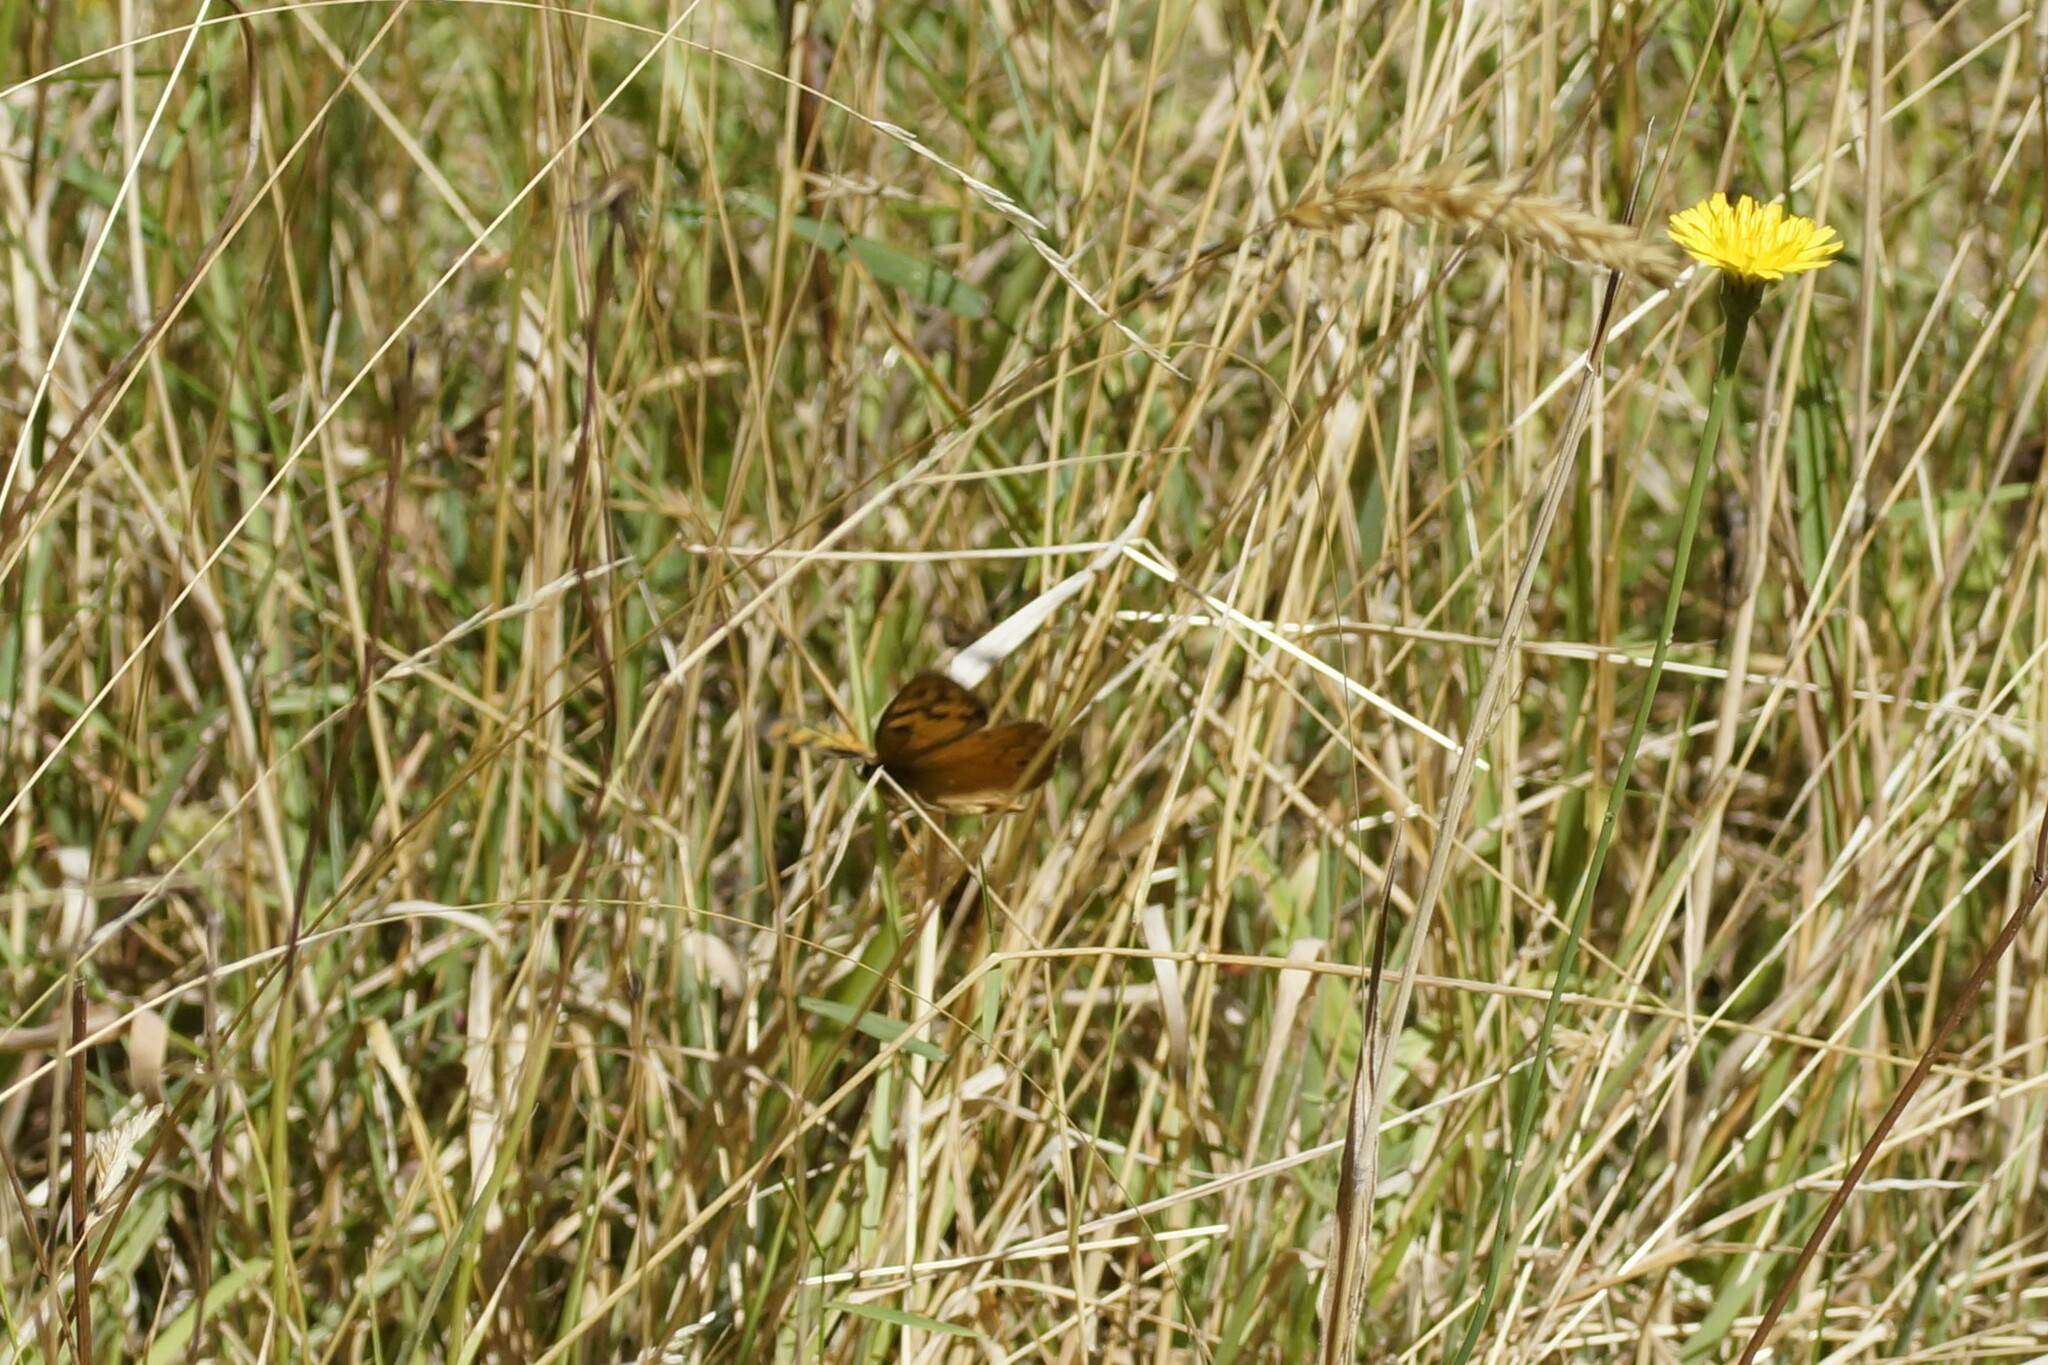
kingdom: Animalia
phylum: Arthropoda
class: Insecta
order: Lepidoptera
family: Nymphalidae
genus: Heteronympha
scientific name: Heteronympha penelope
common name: Shouldered brown
